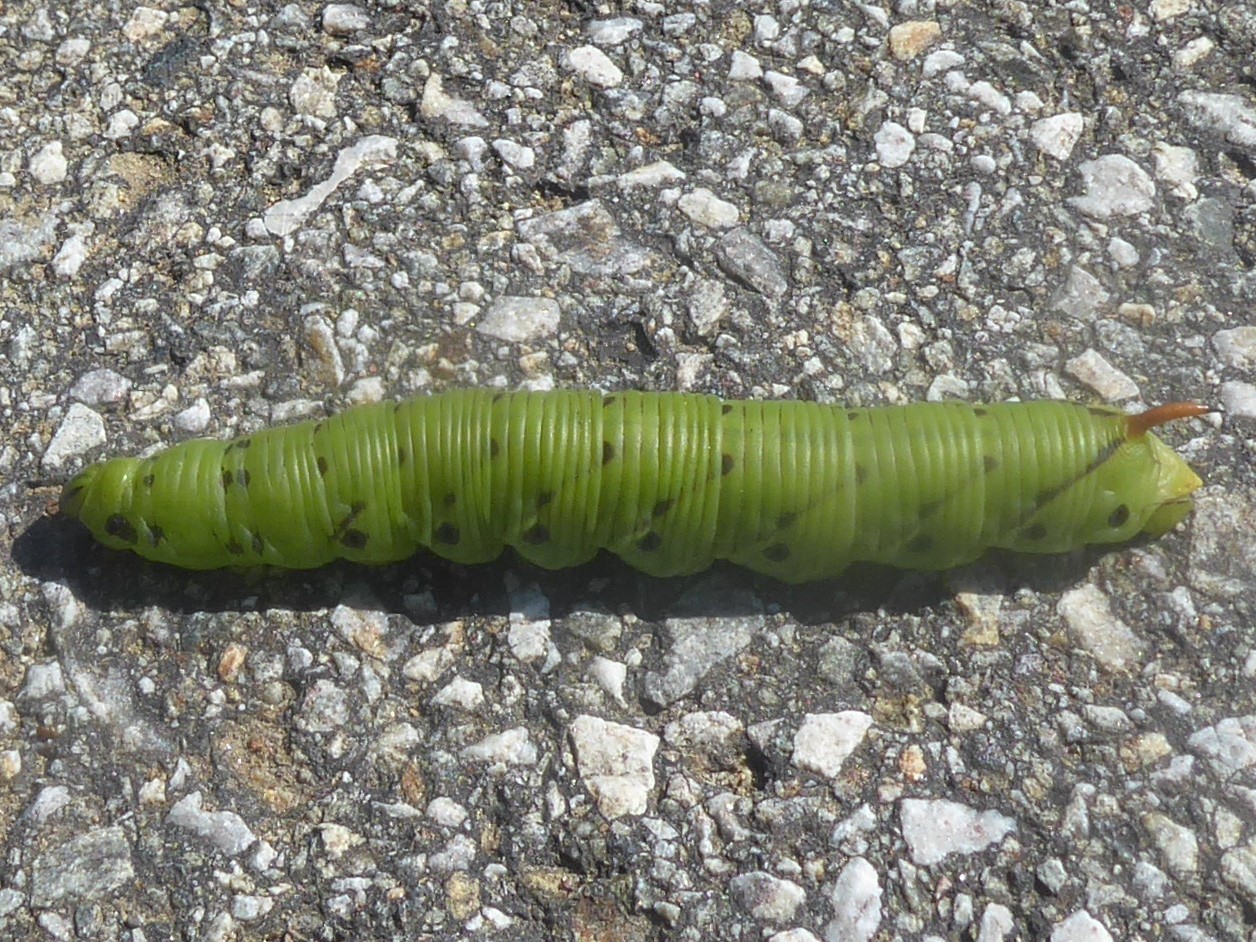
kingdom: Animalia
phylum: Arthropoda
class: Insecta
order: Lepidoptera
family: Sphingidae
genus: Agrius
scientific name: Agrius convolvuli
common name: Convolvulus hawkmoth
